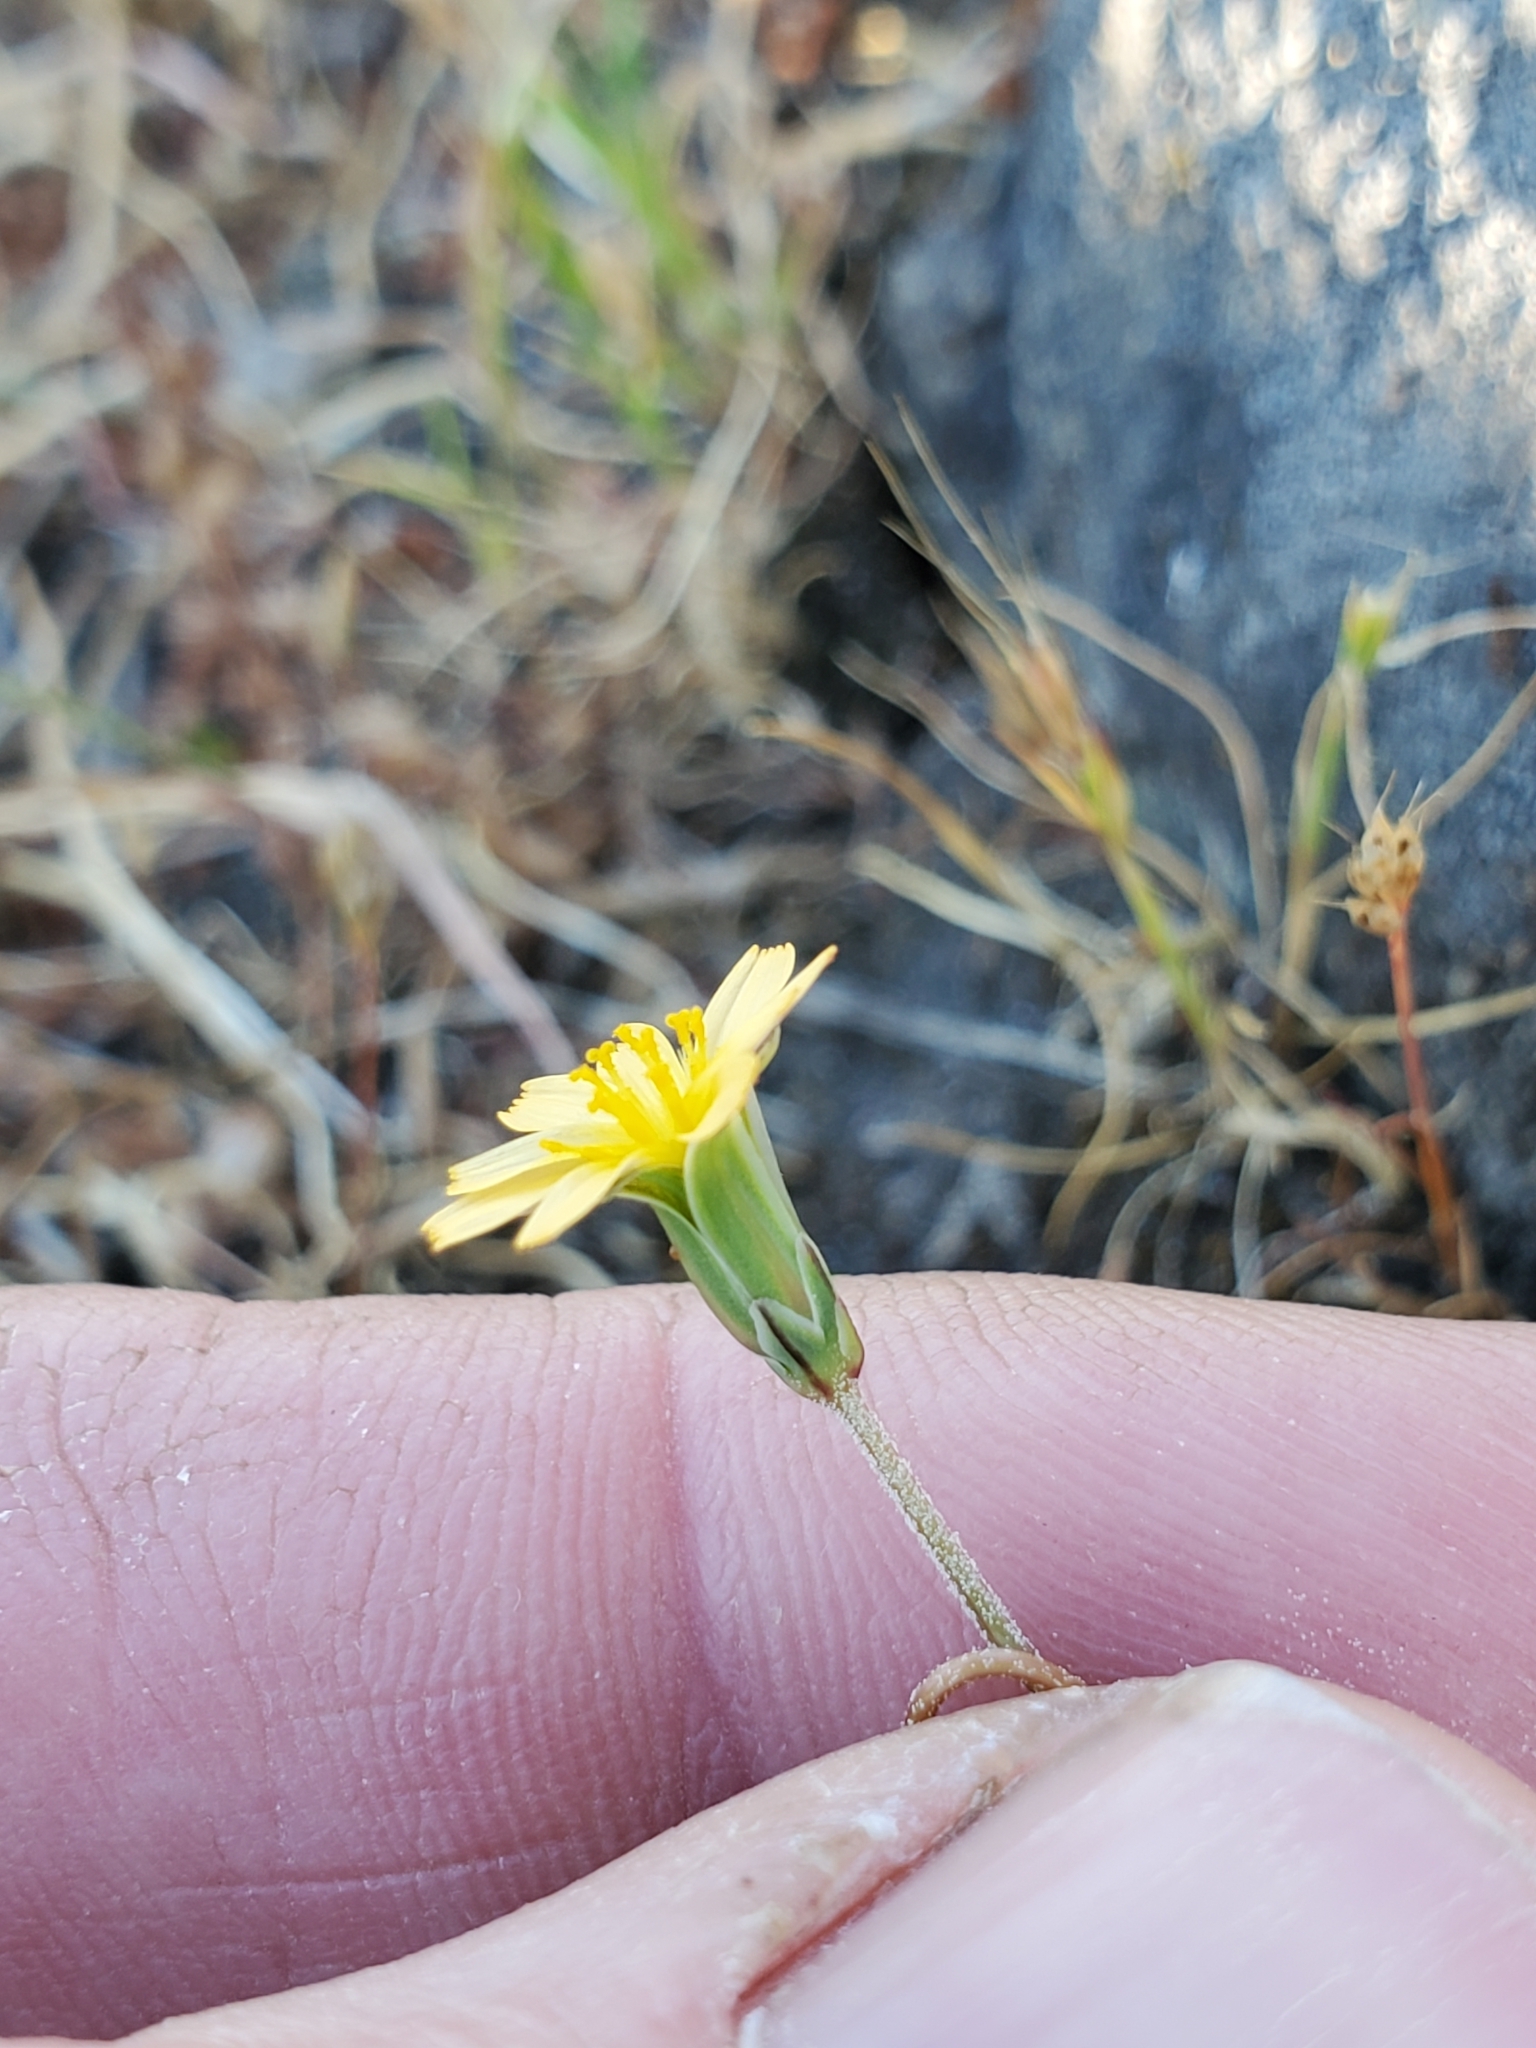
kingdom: Plantae
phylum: Tracheophyta
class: Magnoliopsida
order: Asterales
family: Asteraceae
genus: Microseris
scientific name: Microseris bigelovii
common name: Coast microseris
